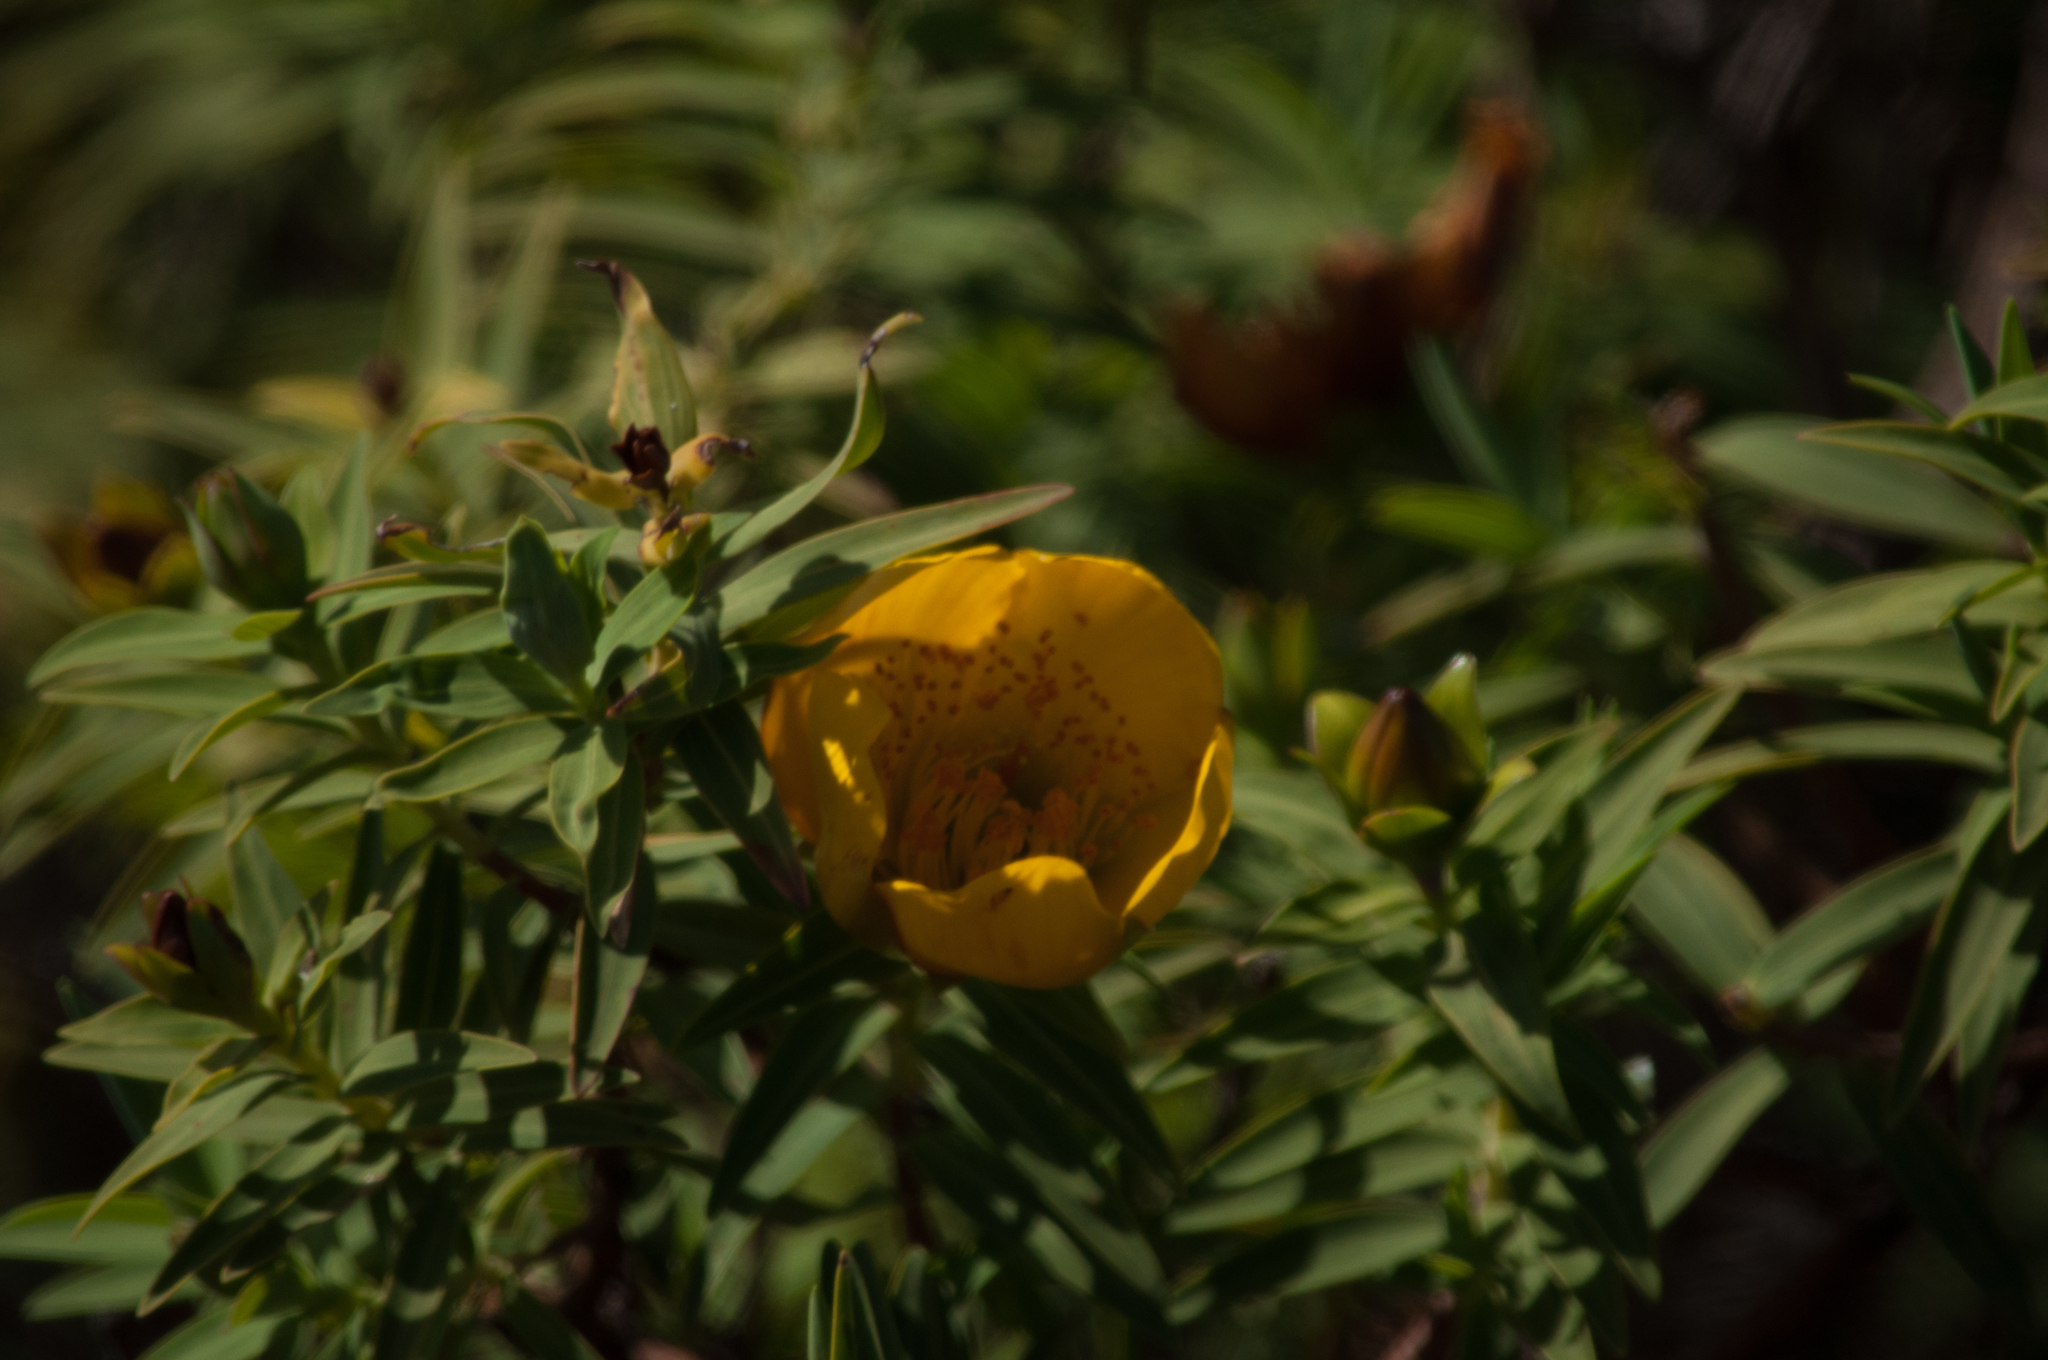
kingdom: Plantae
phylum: Tracheophyta
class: Magnoliopsida
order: Malpighiales
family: Hypericaceae
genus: Hypericum
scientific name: Hypericum lanceolatum
